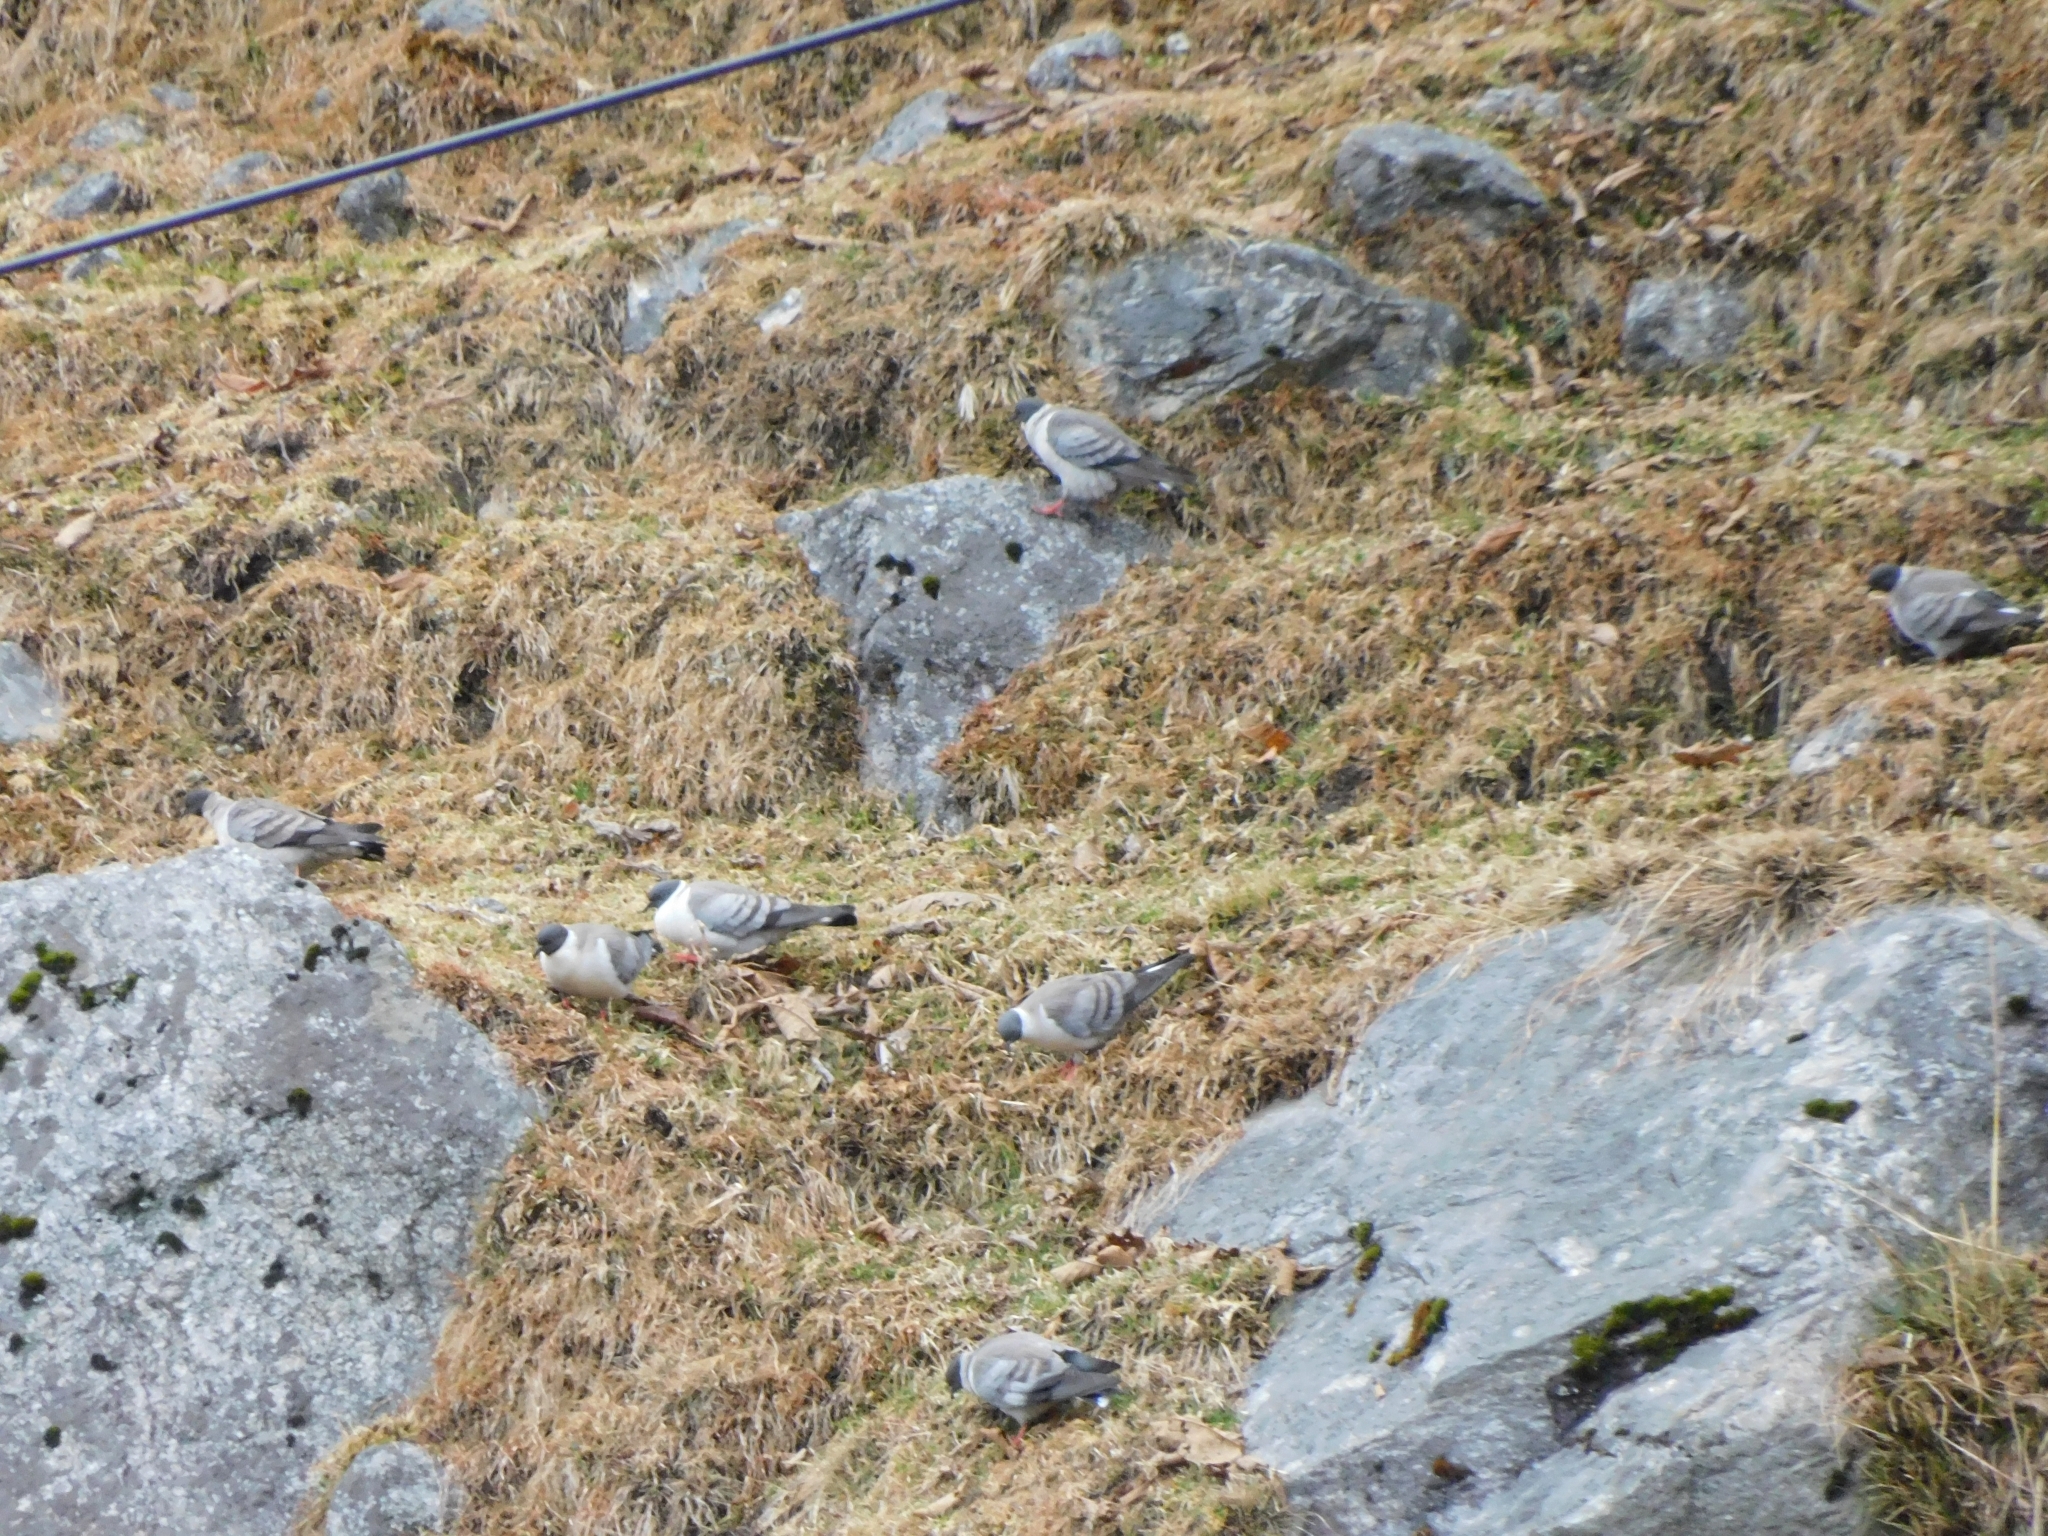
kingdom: Animalia
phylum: Chordata
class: Aves
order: Columbiformes
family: Columbidae
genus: Columba
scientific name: Columba leuconota
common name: Snow pigeon
